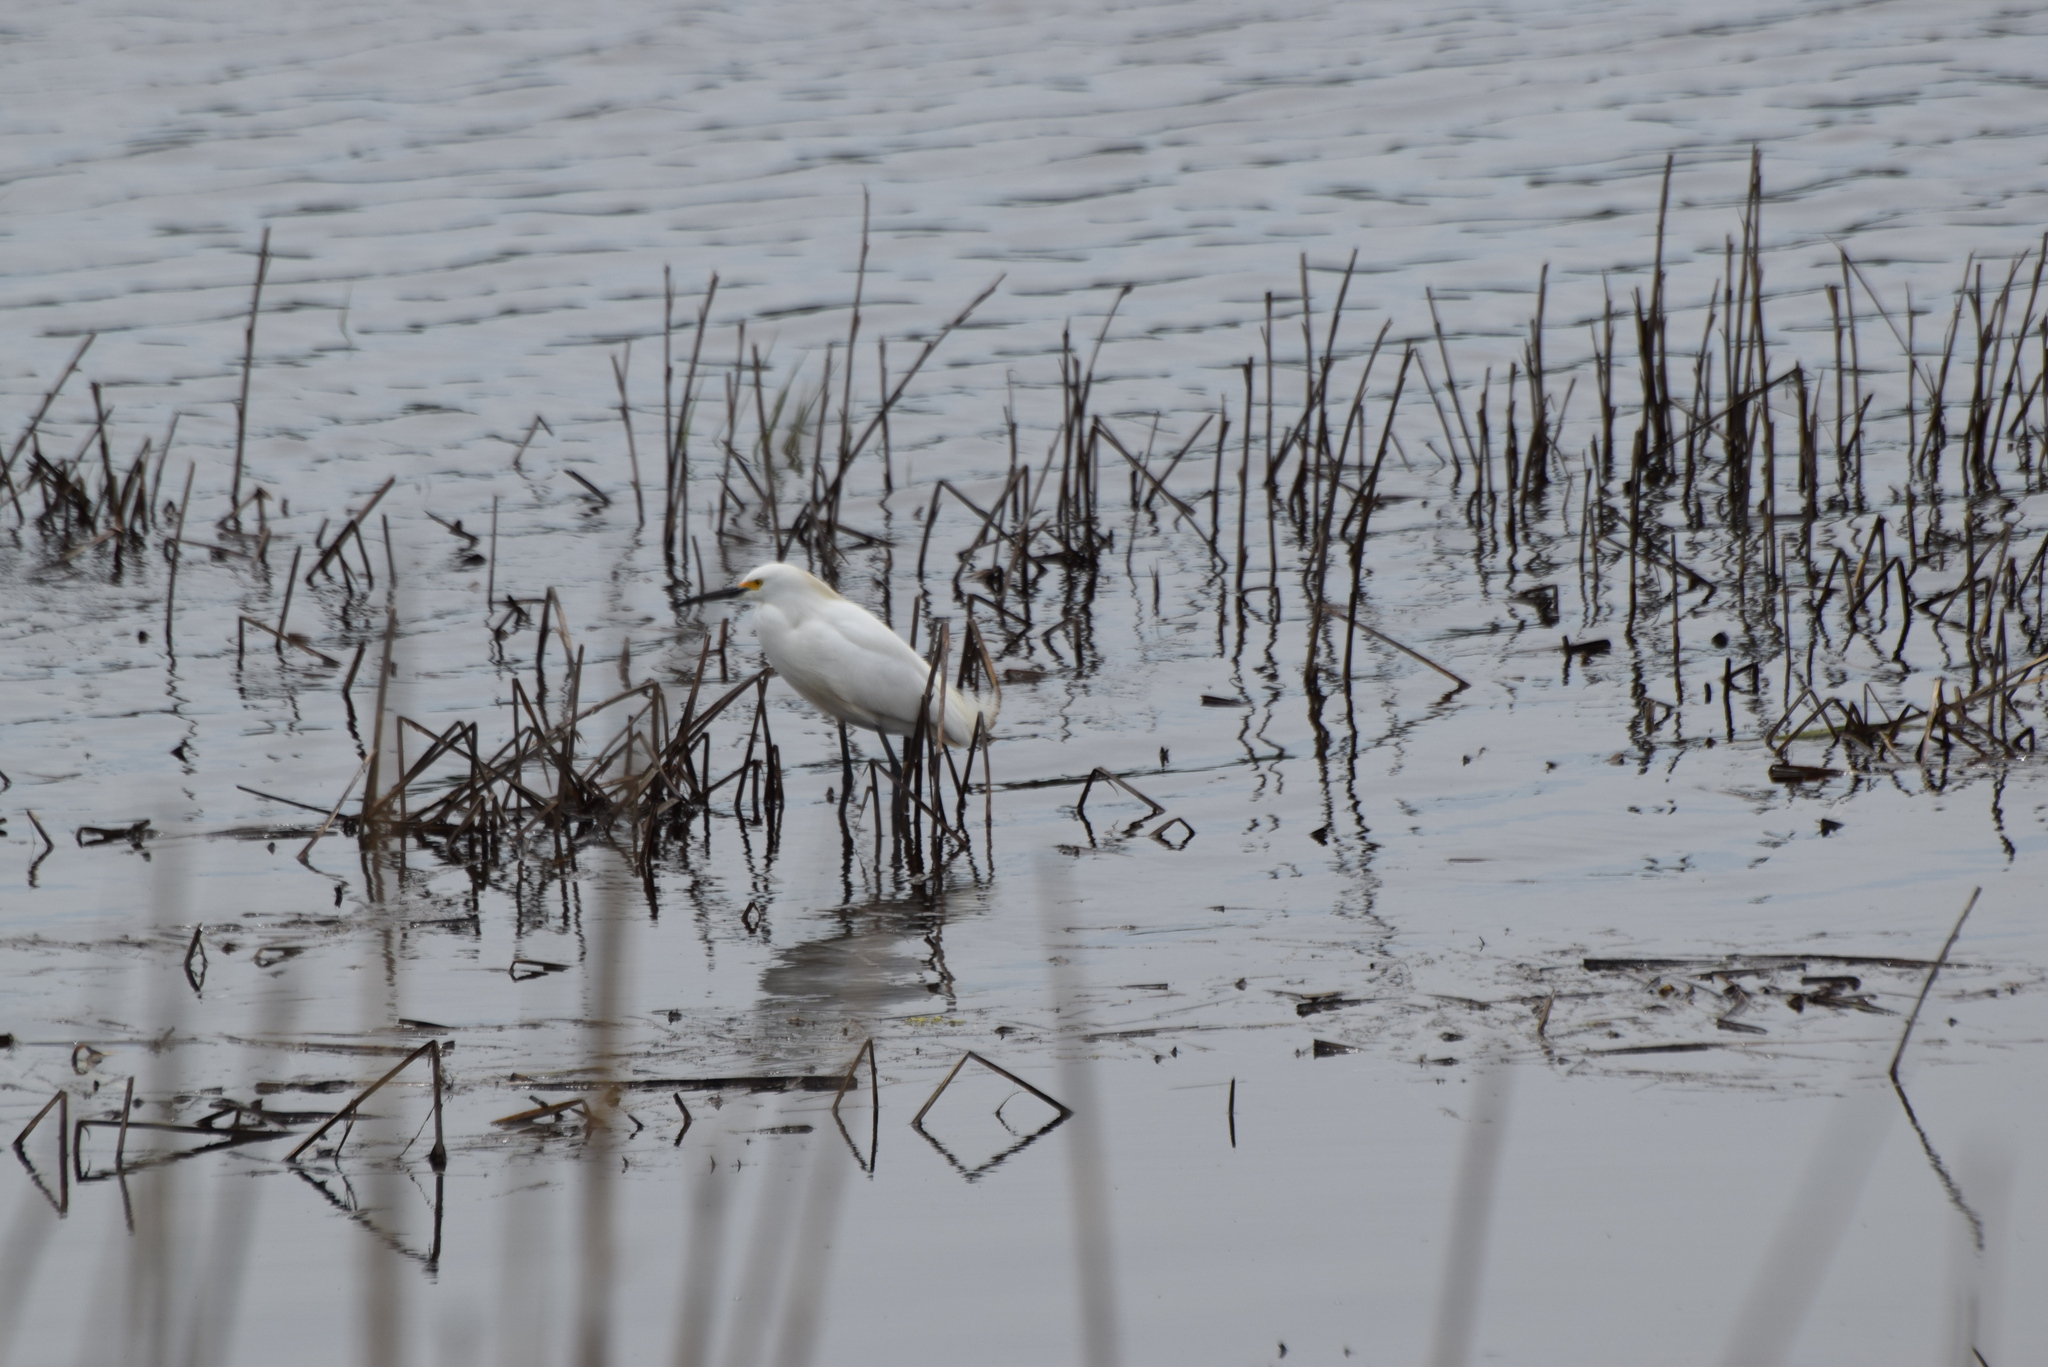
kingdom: Animalia
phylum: Chordata
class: Aves
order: Pelecaniformes
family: Ardeidae
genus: Egretta
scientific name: Egretta thula
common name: Snowy egret
